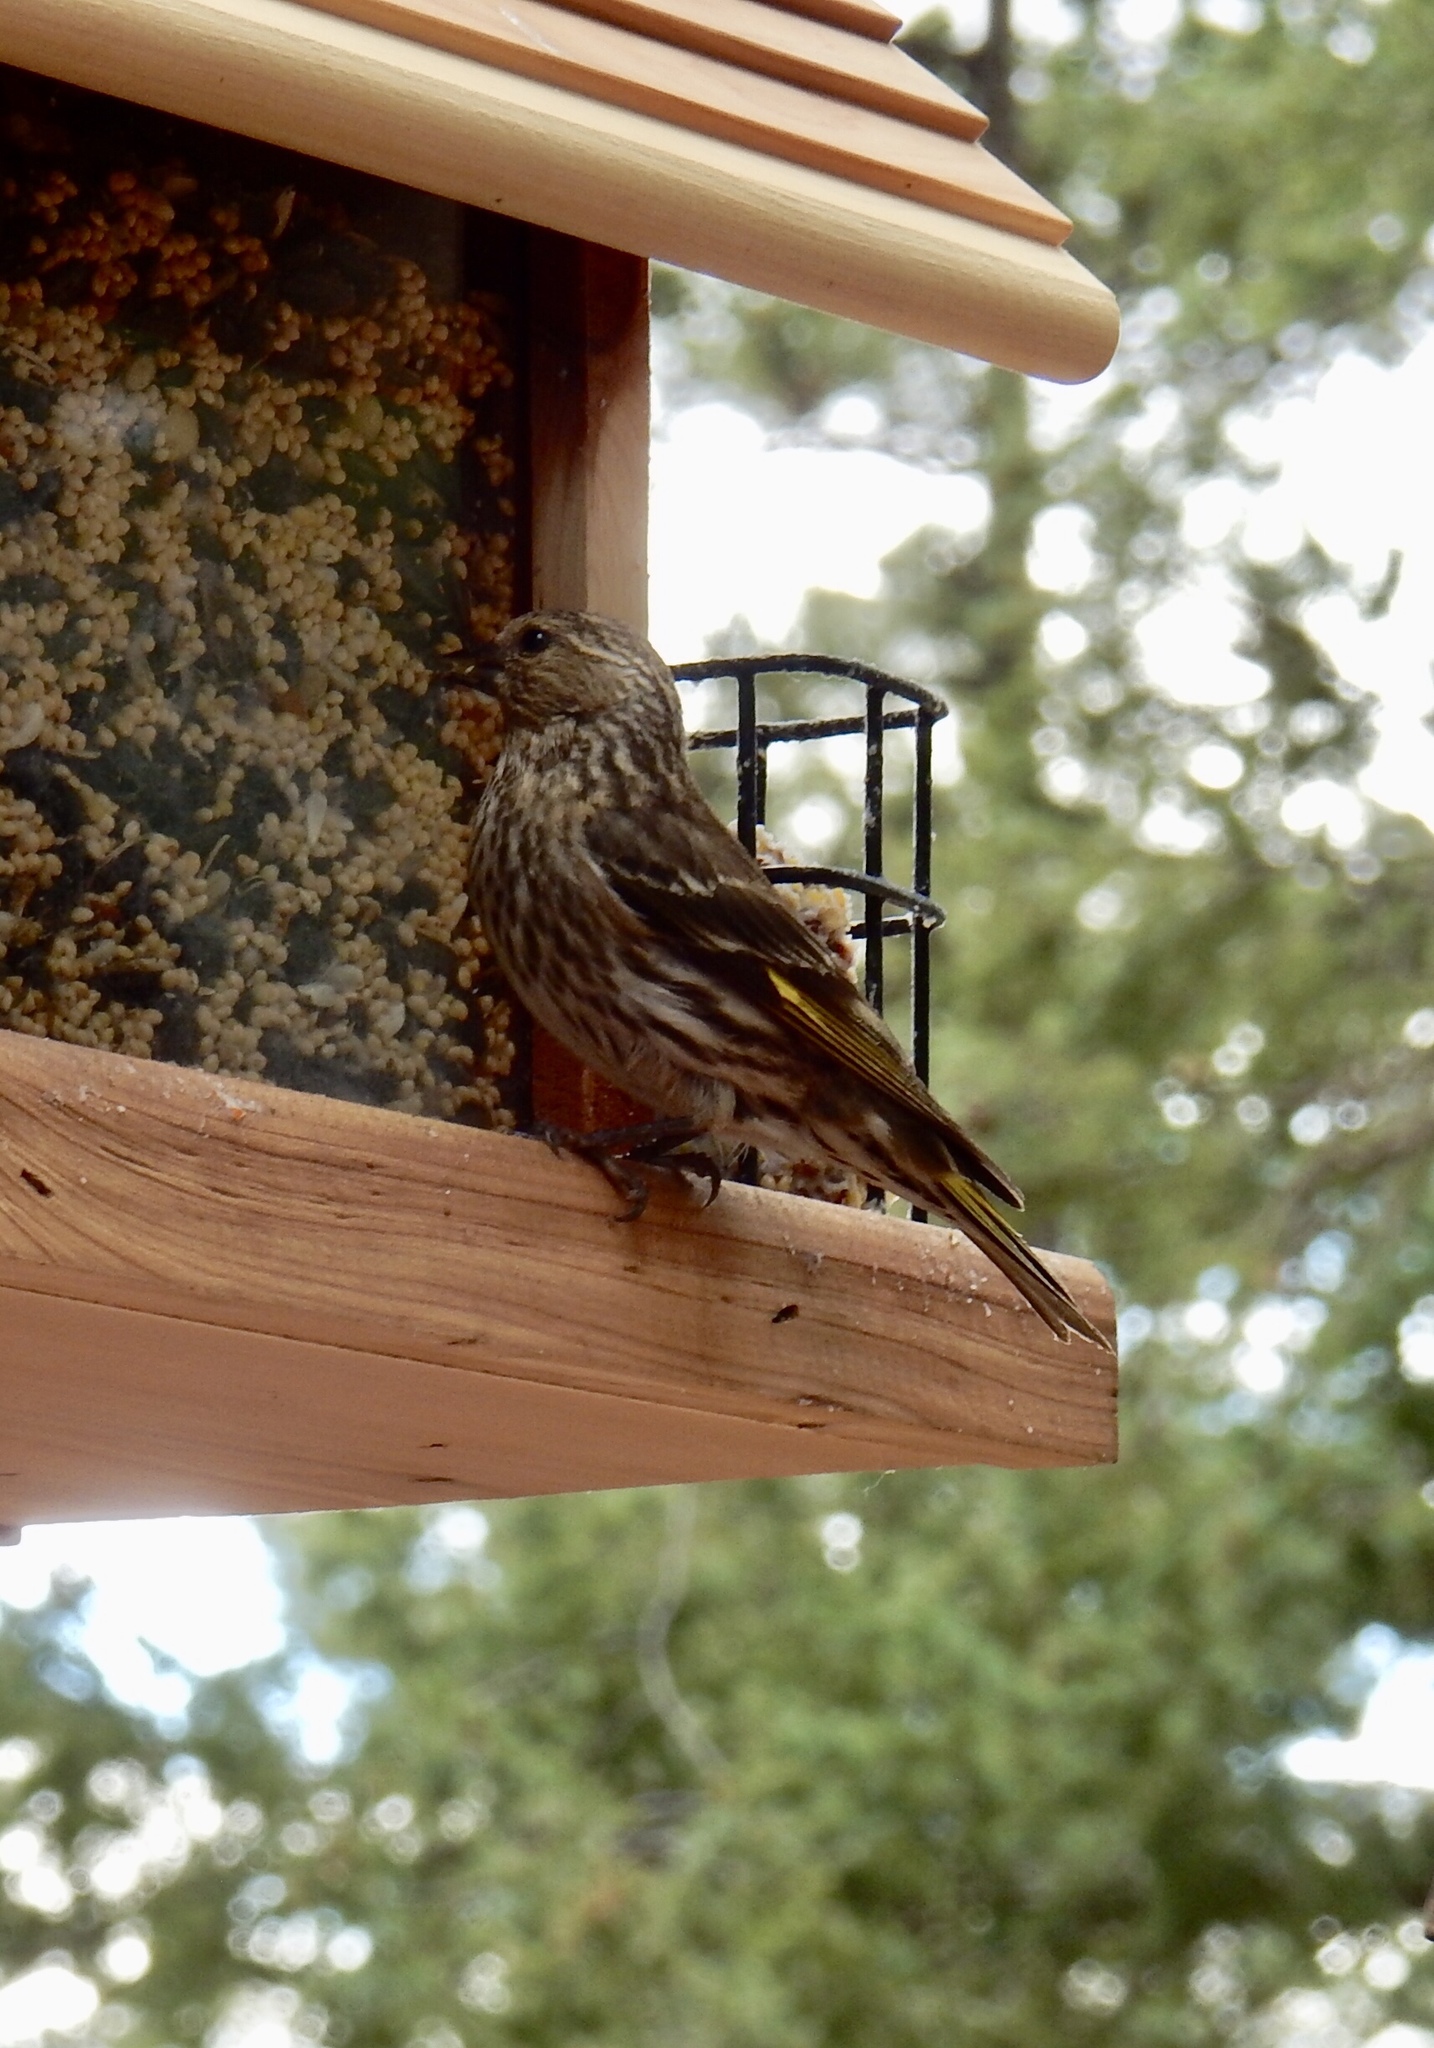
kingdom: Animalia
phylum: Chordata
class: Aves
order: Passeriformes
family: Fringillidae
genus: Spinus
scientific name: Spinus pinus
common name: Pine siskin
